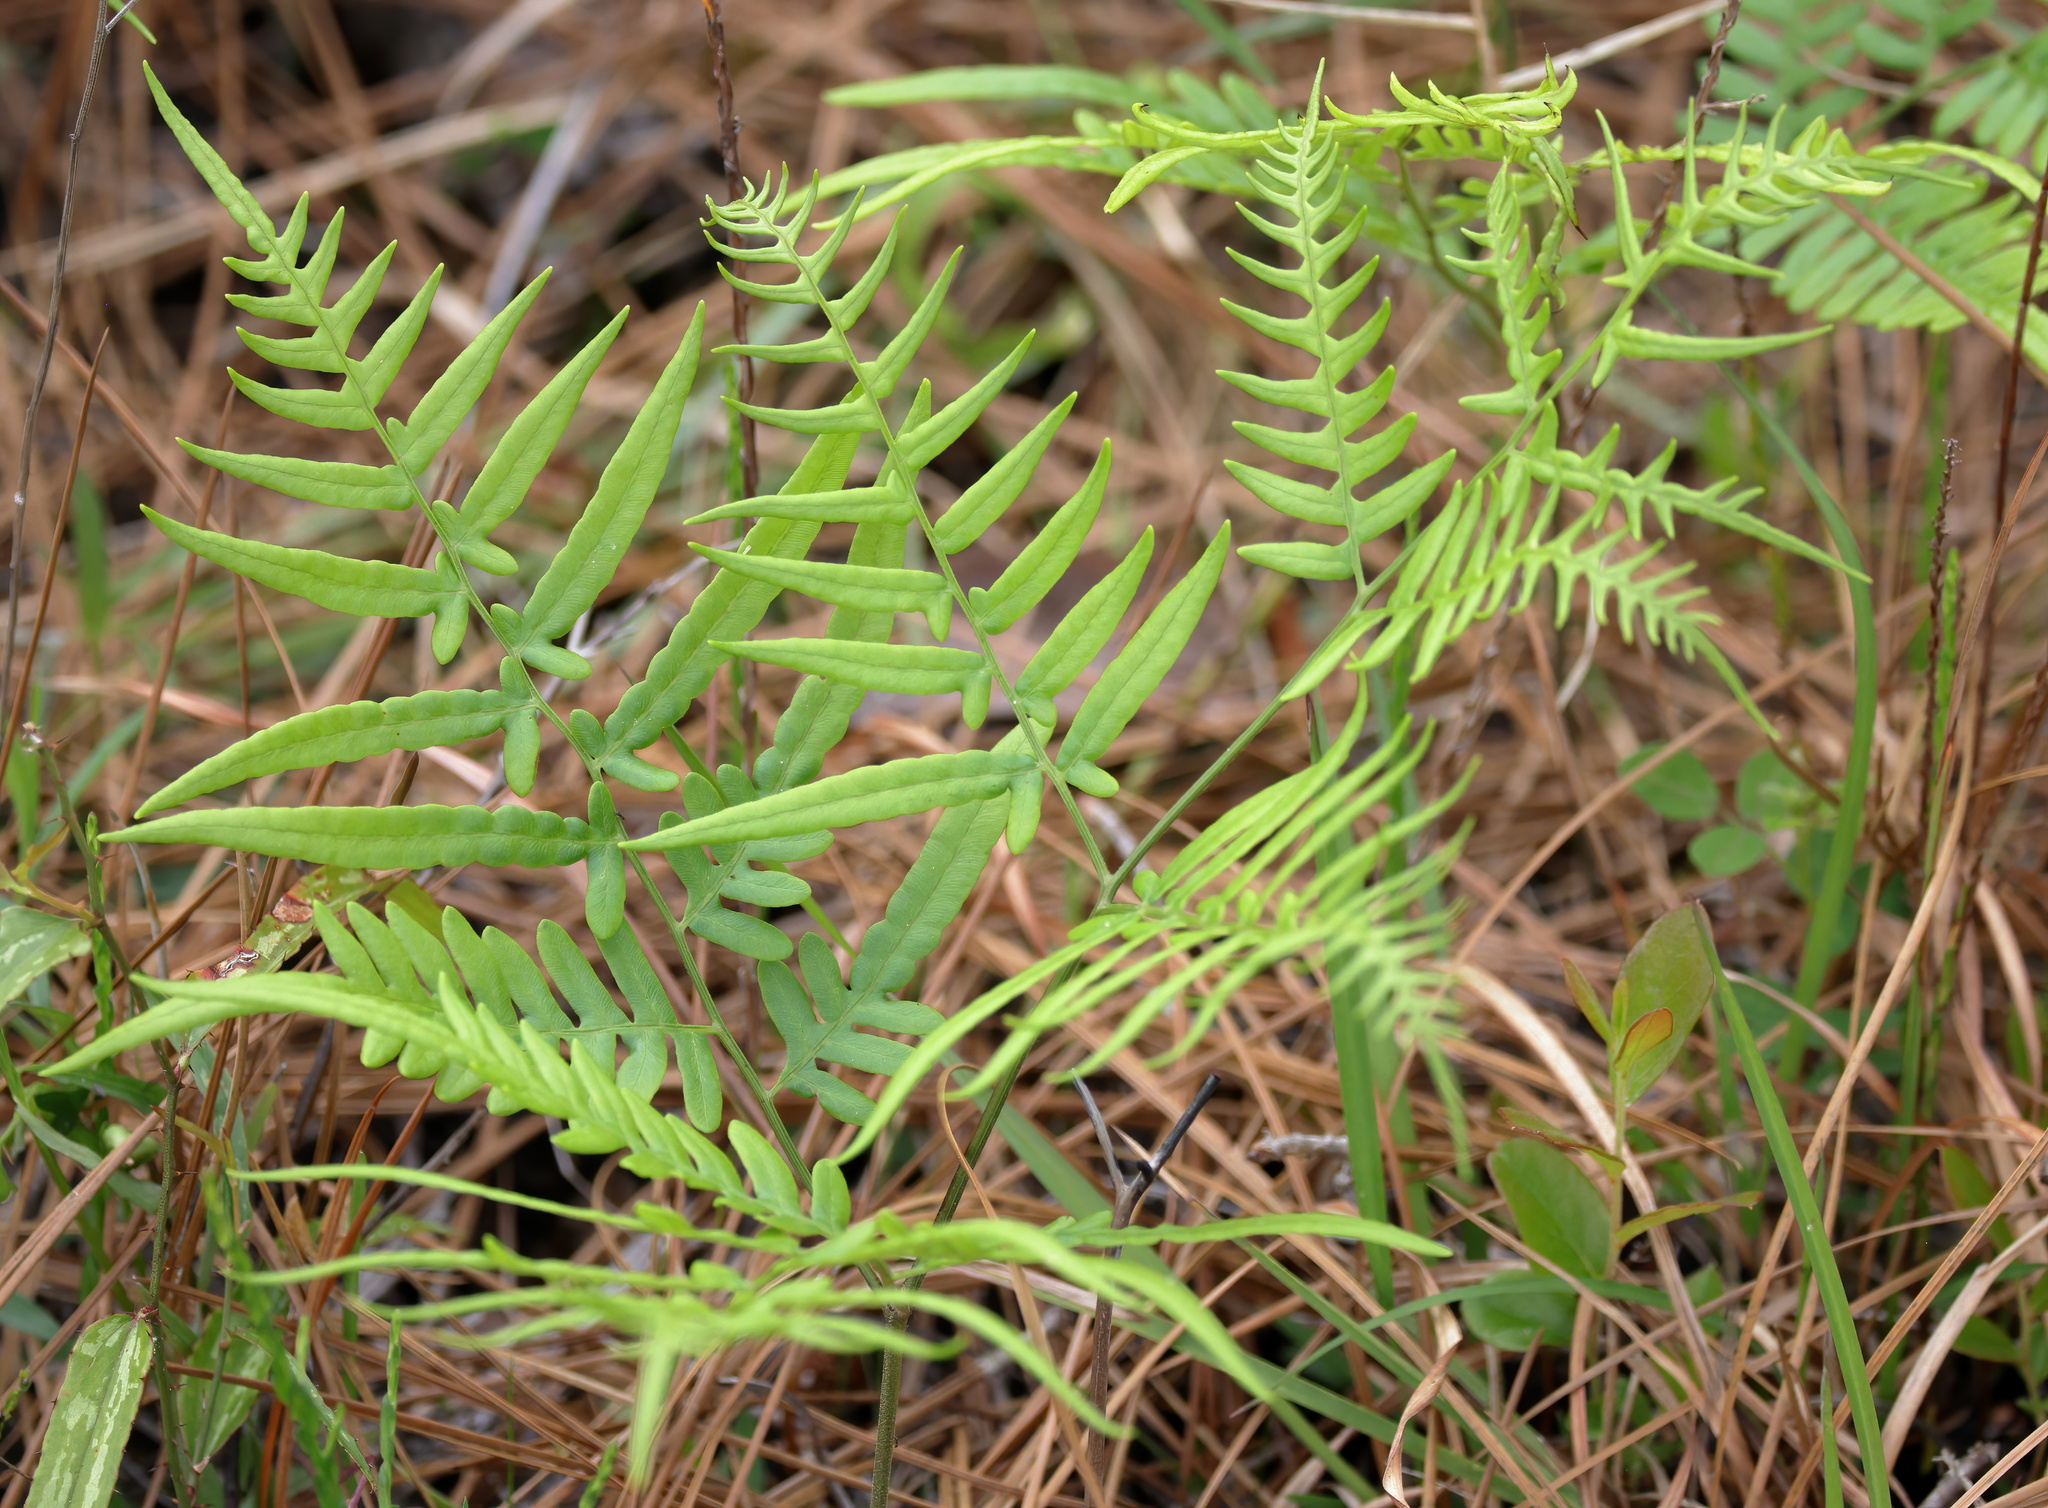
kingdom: Plantae
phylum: Tracheophyta
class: Polypodiopsida
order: Polypodiales
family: Dennstaedtiaceae
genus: Pteridium
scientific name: Pteridium
